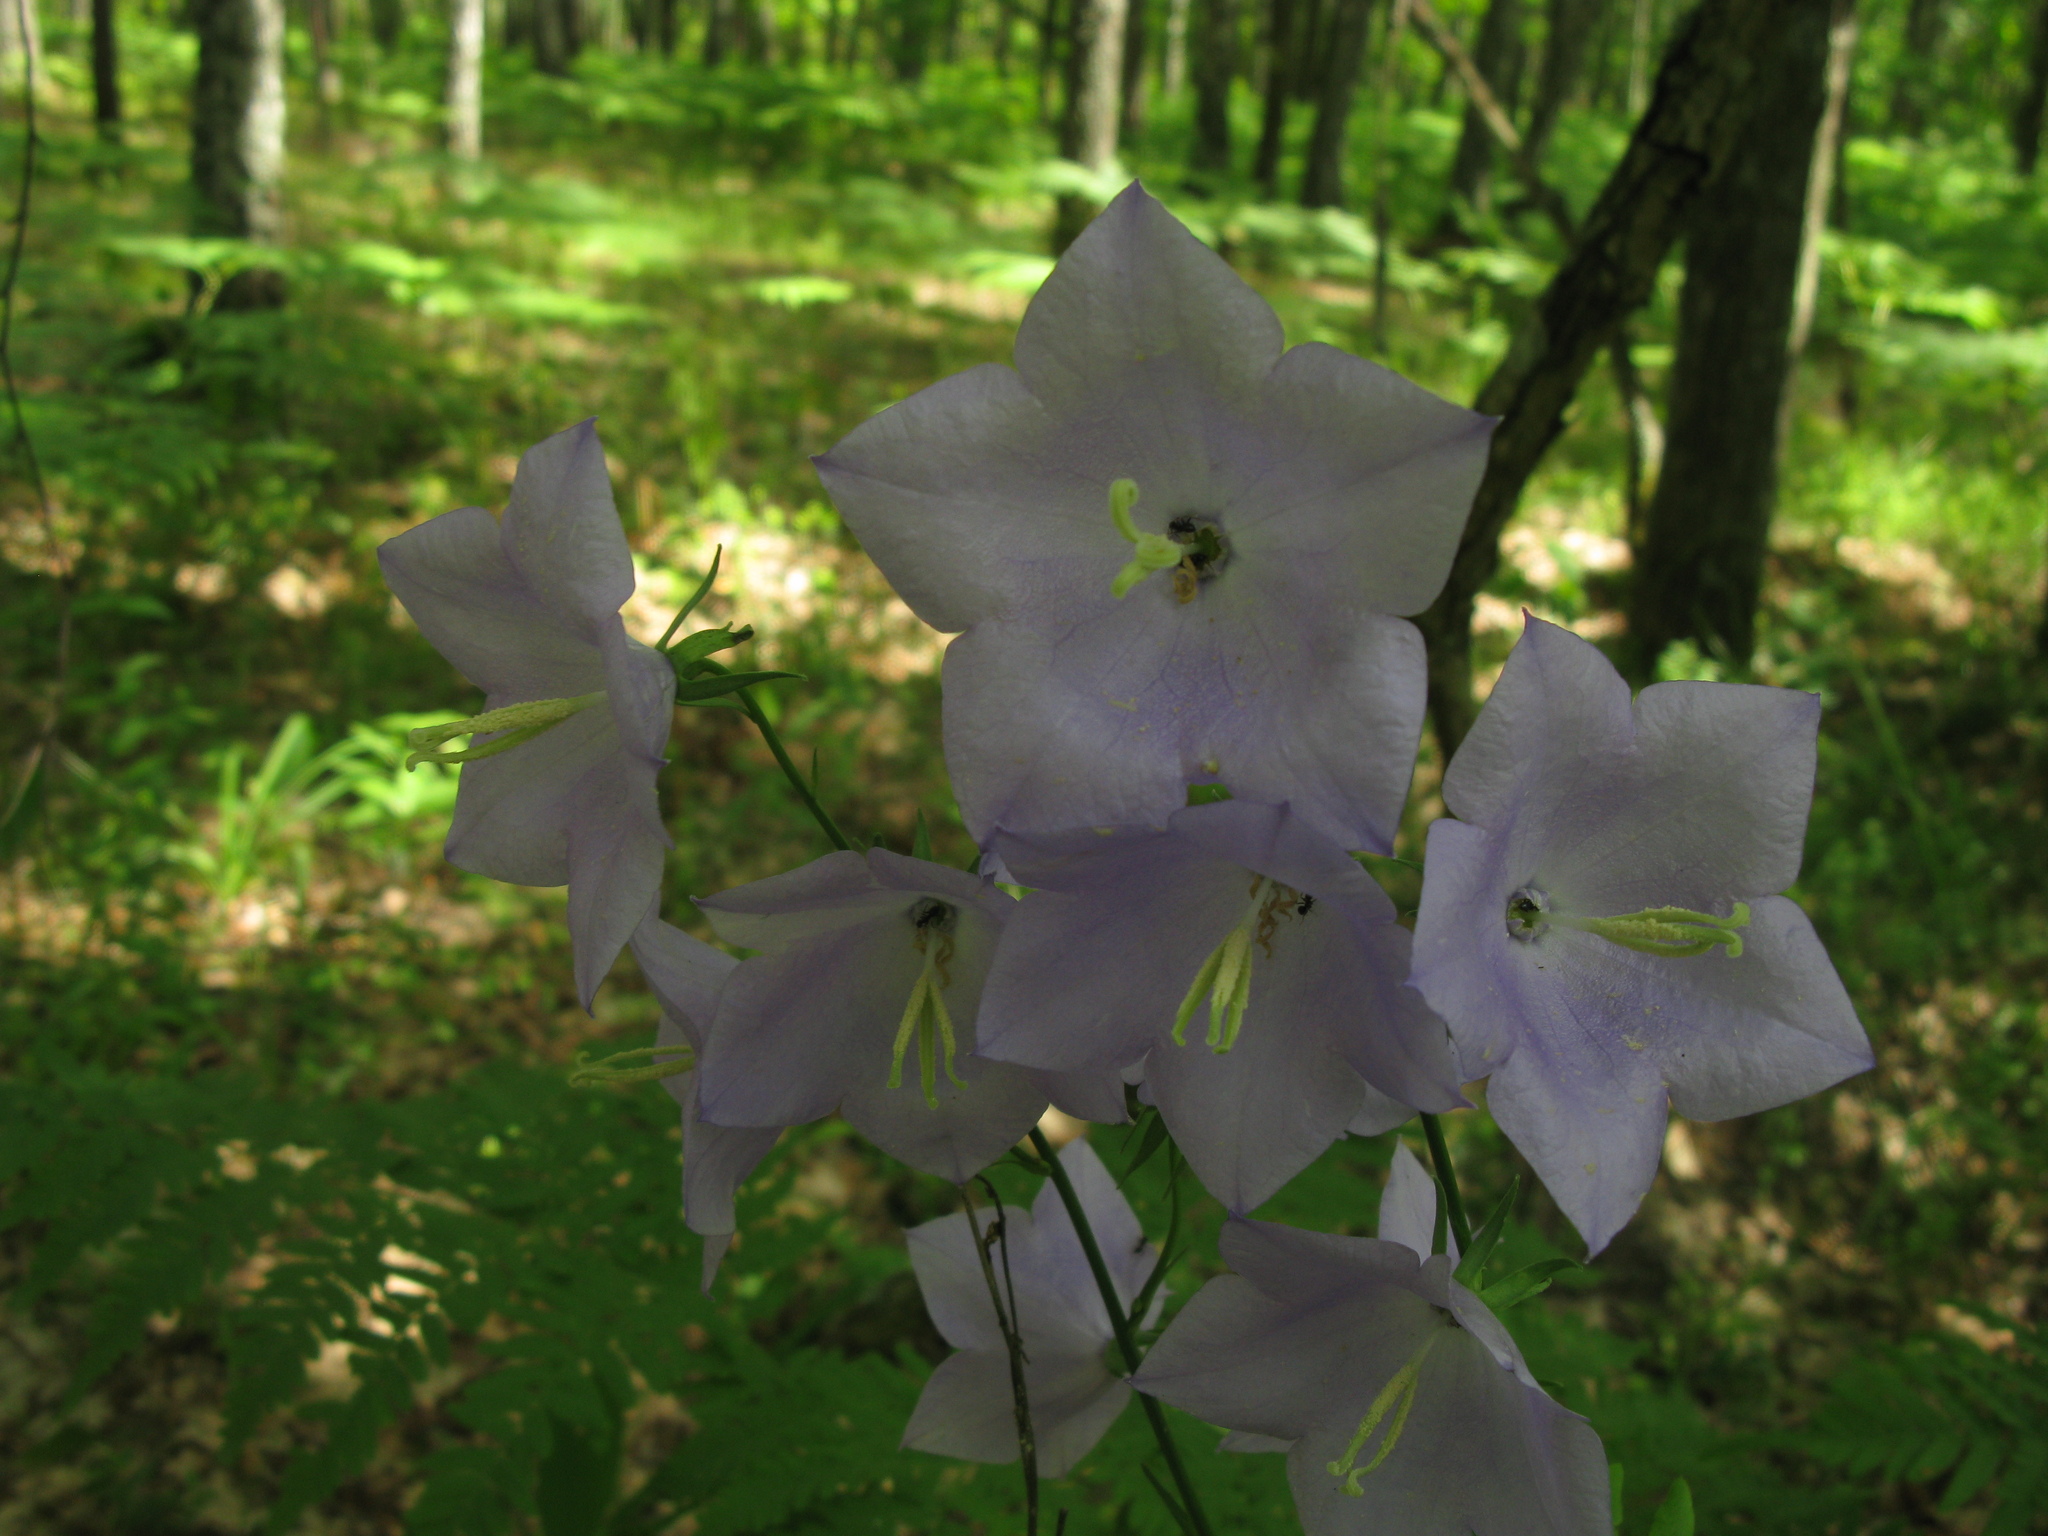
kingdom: Plantae
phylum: Tracheophyta
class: Magnoliopsida
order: Asterales
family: Campanulaceae
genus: Campanula
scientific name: Campanula persicifolia
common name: Peach-leaved bellflower
